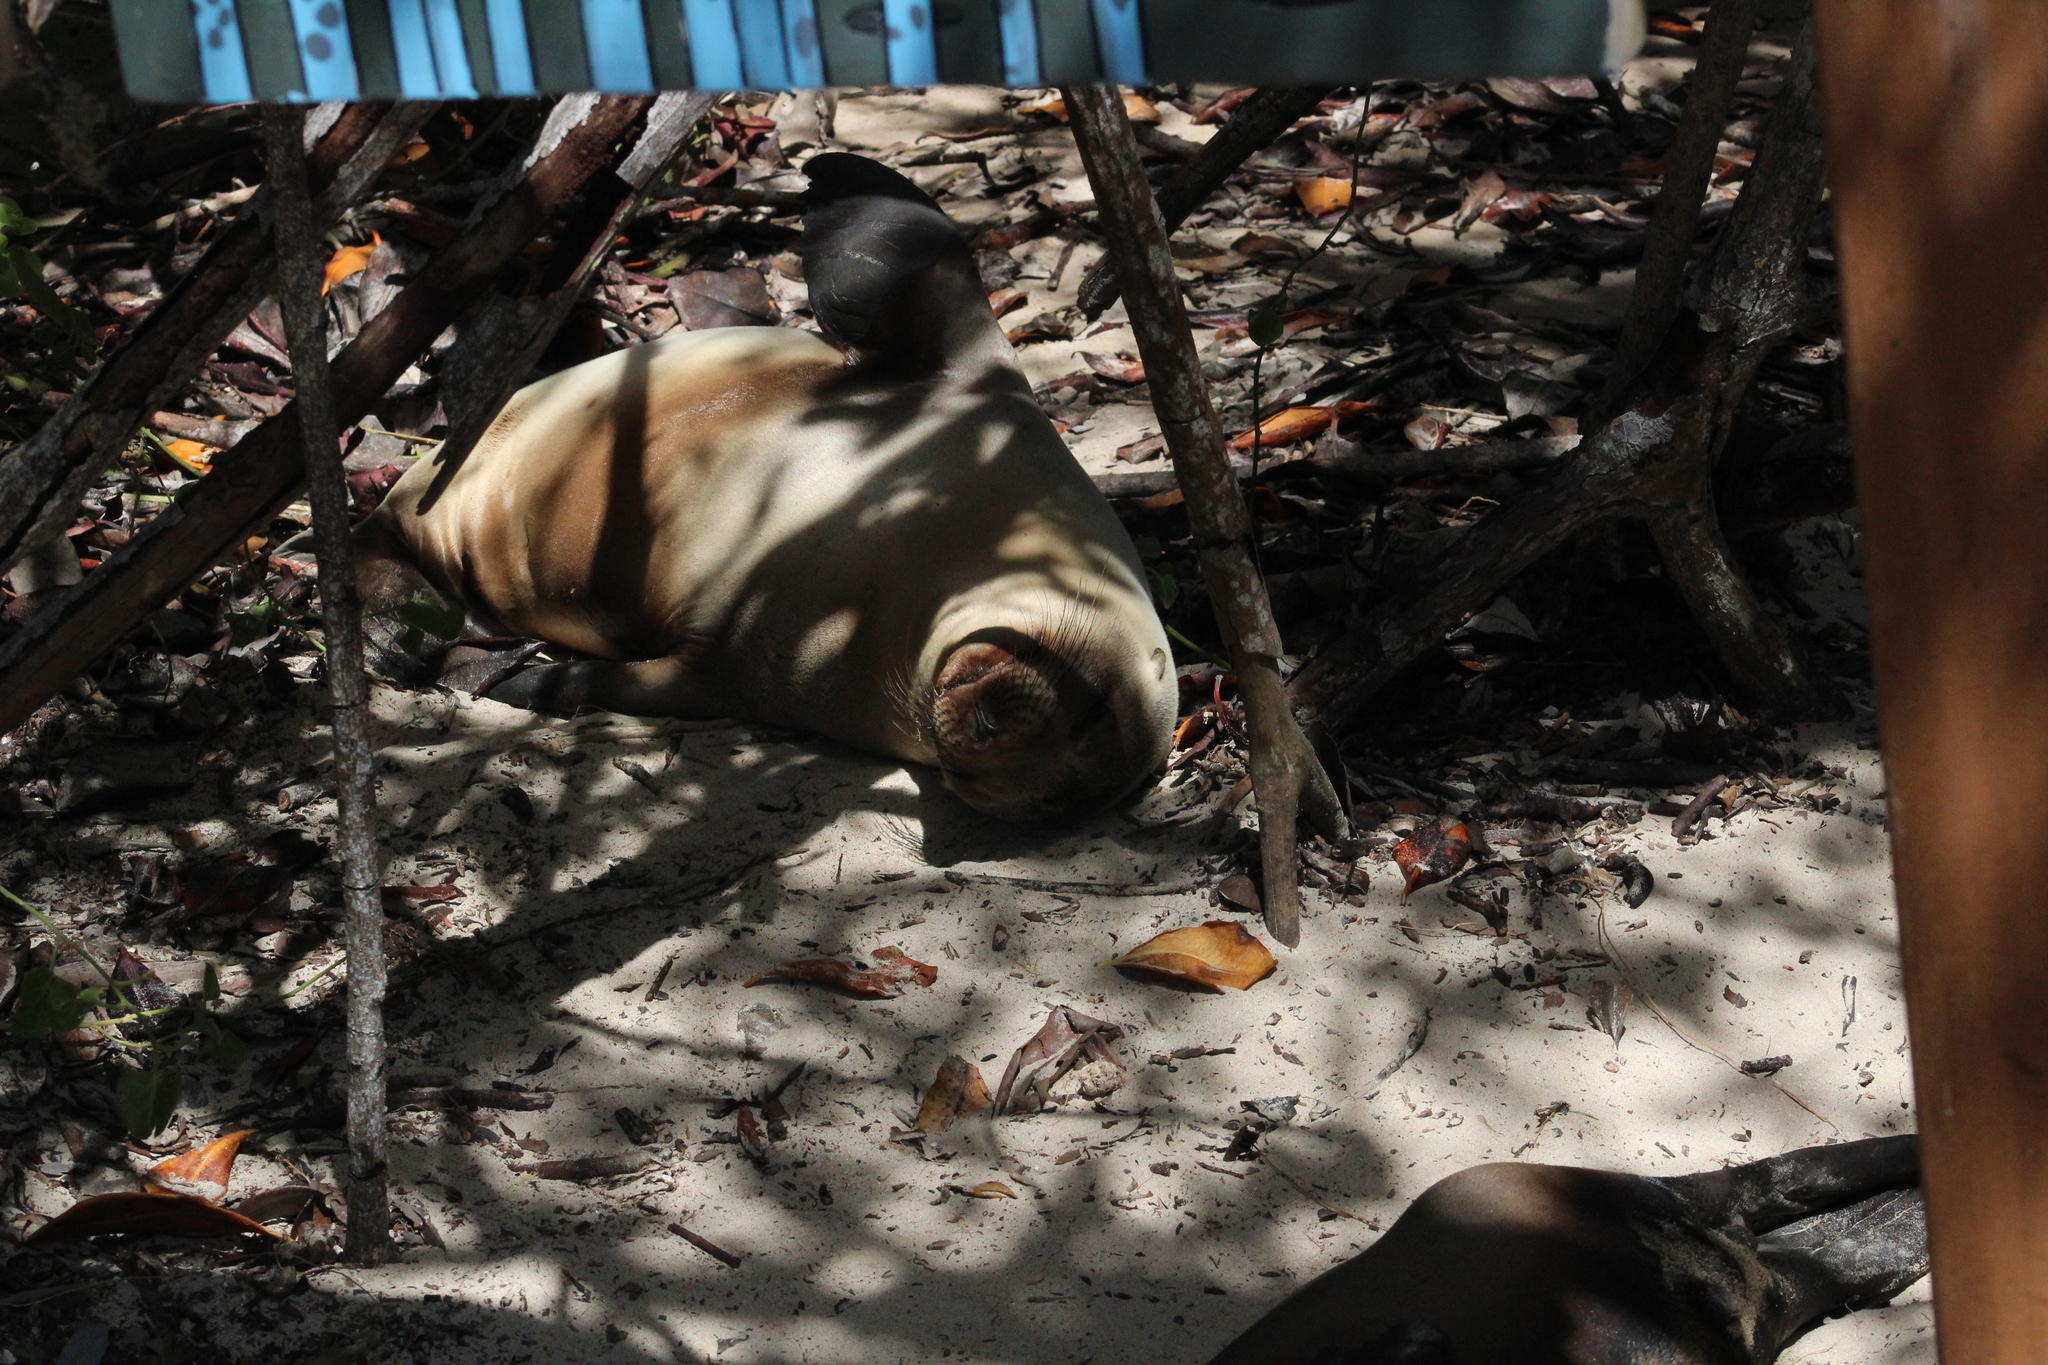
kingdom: Animalia
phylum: Chordata
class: Mammalia
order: Carnivora
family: Otariidae
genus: Zalophus
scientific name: Zalophus wollebaeki
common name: Galapagos sea lion
